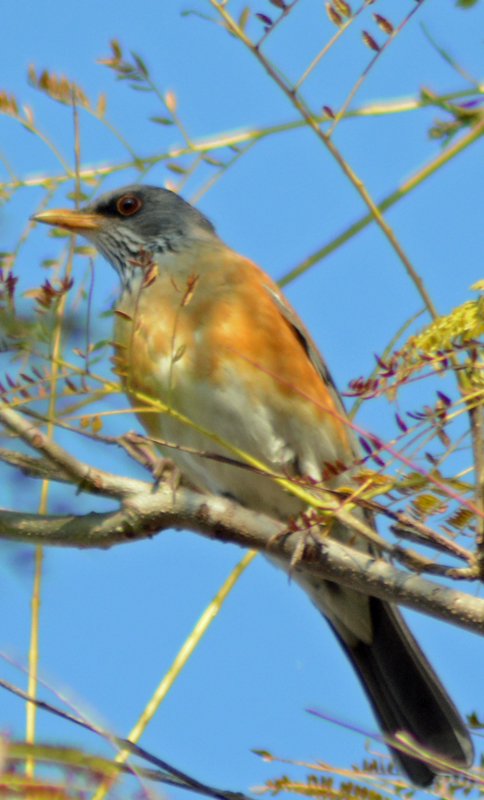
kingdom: Animalia
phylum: Chordata
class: Aves
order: Passeriformes
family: Turdidae
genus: Turdus
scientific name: Turdus rufopalliatus
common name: Rufous-backed robin
